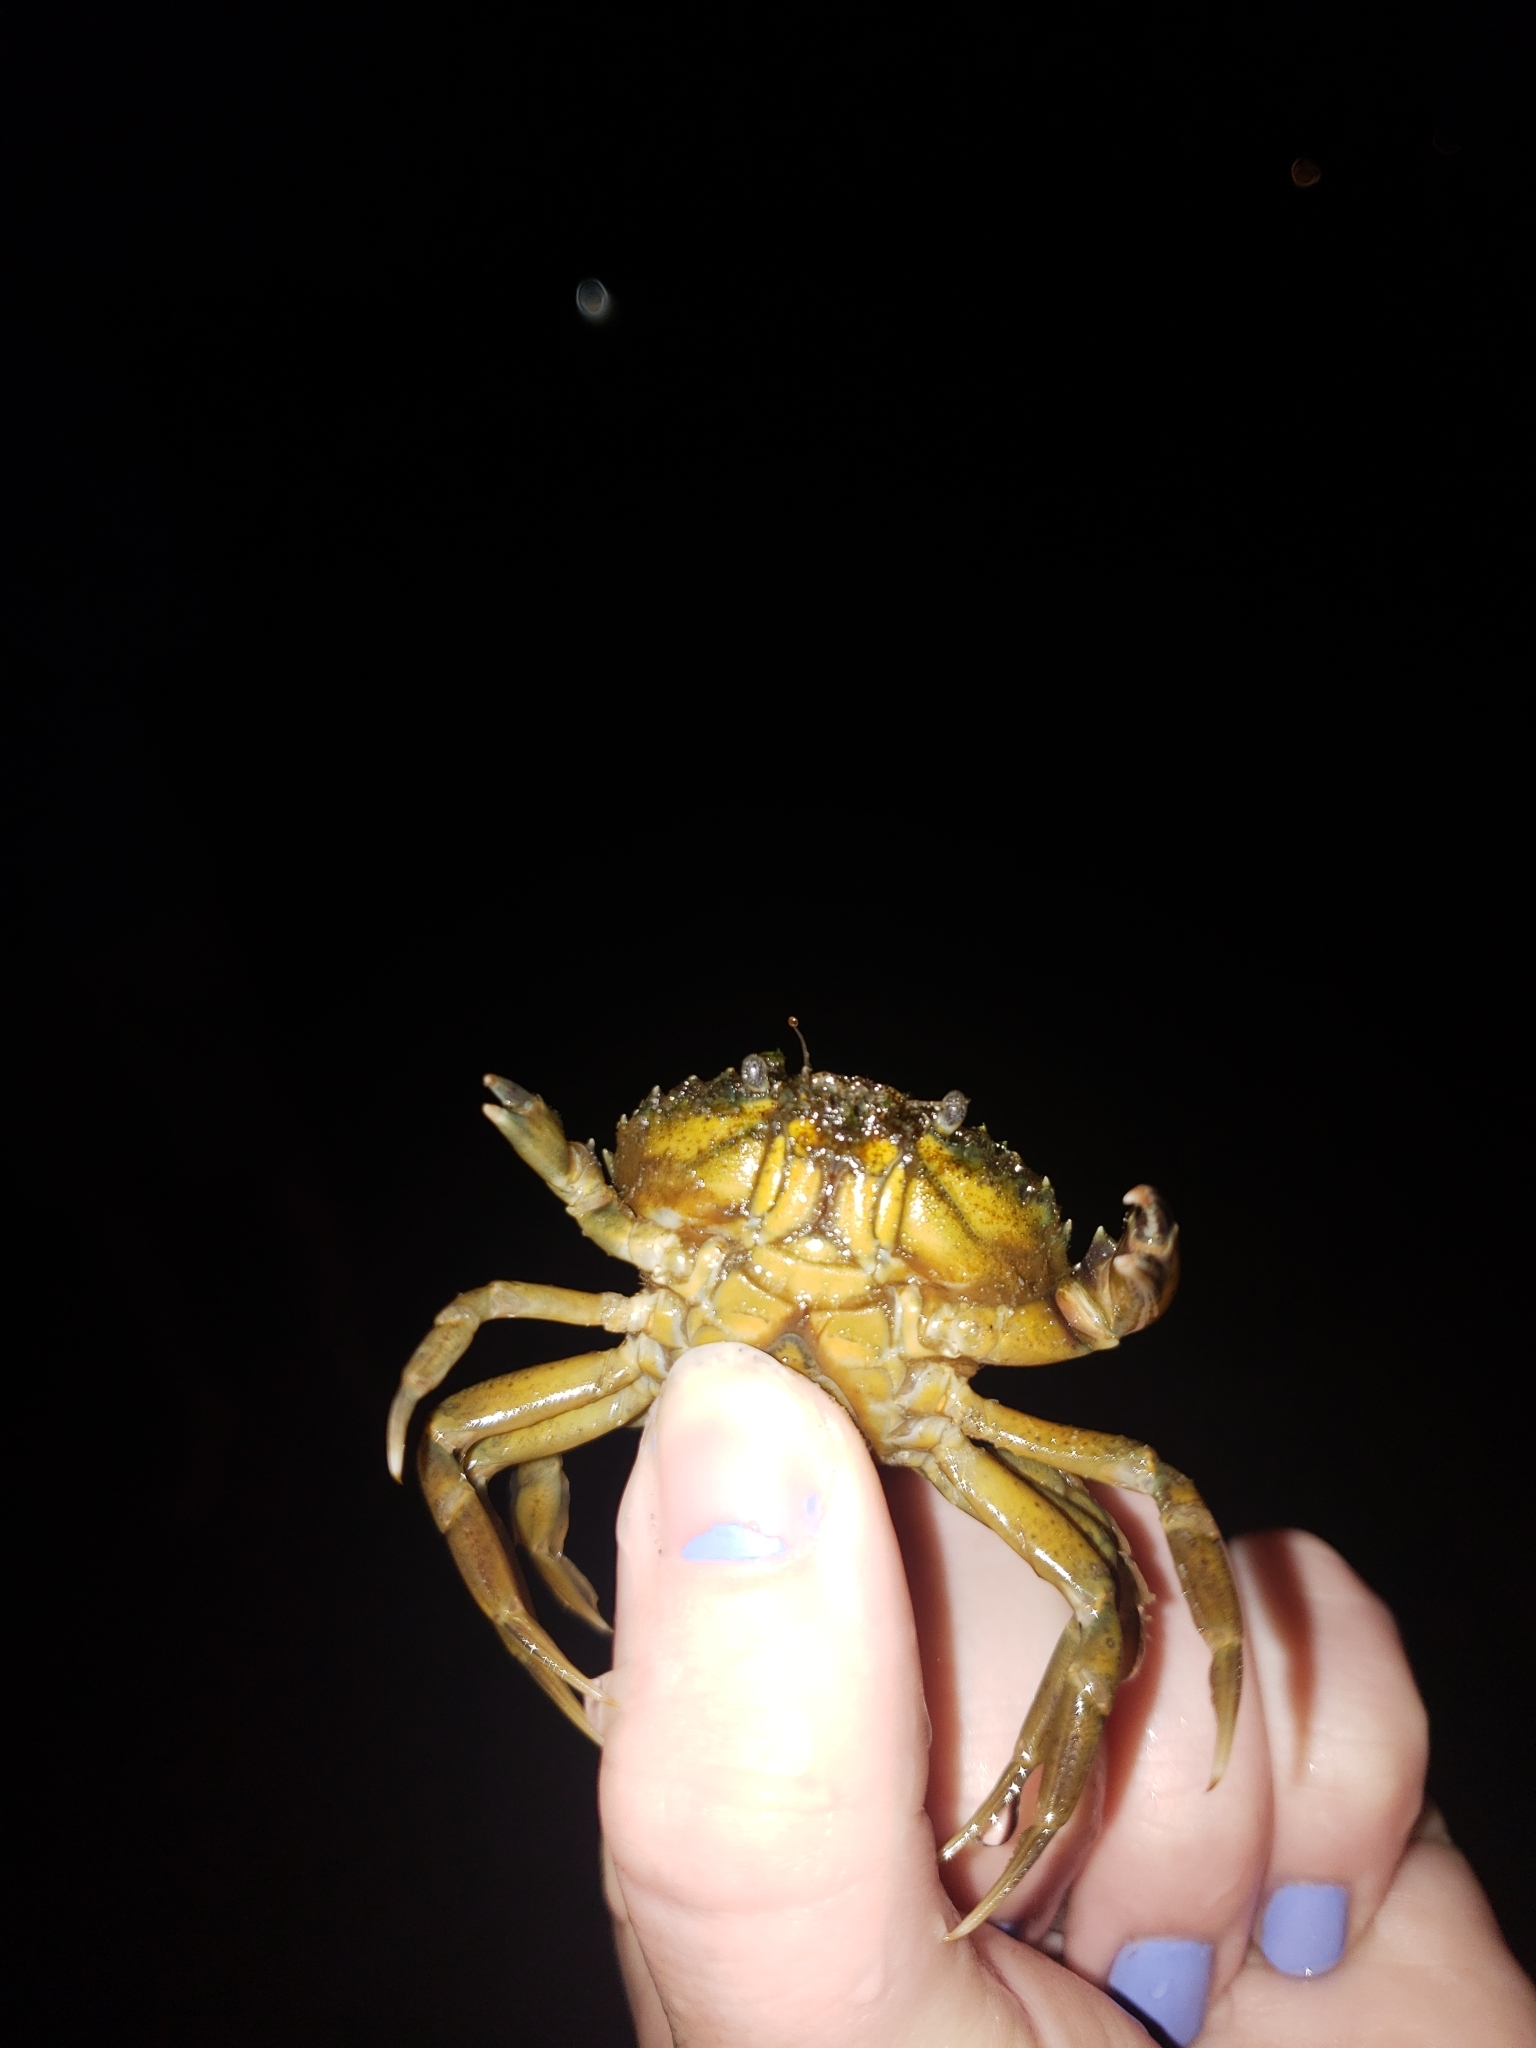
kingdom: Animalia
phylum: Arthropoda
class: Malacostraca
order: Decapoda
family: Carcinidae
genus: Carcinus
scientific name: Carcinus maenas
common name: European green crab
